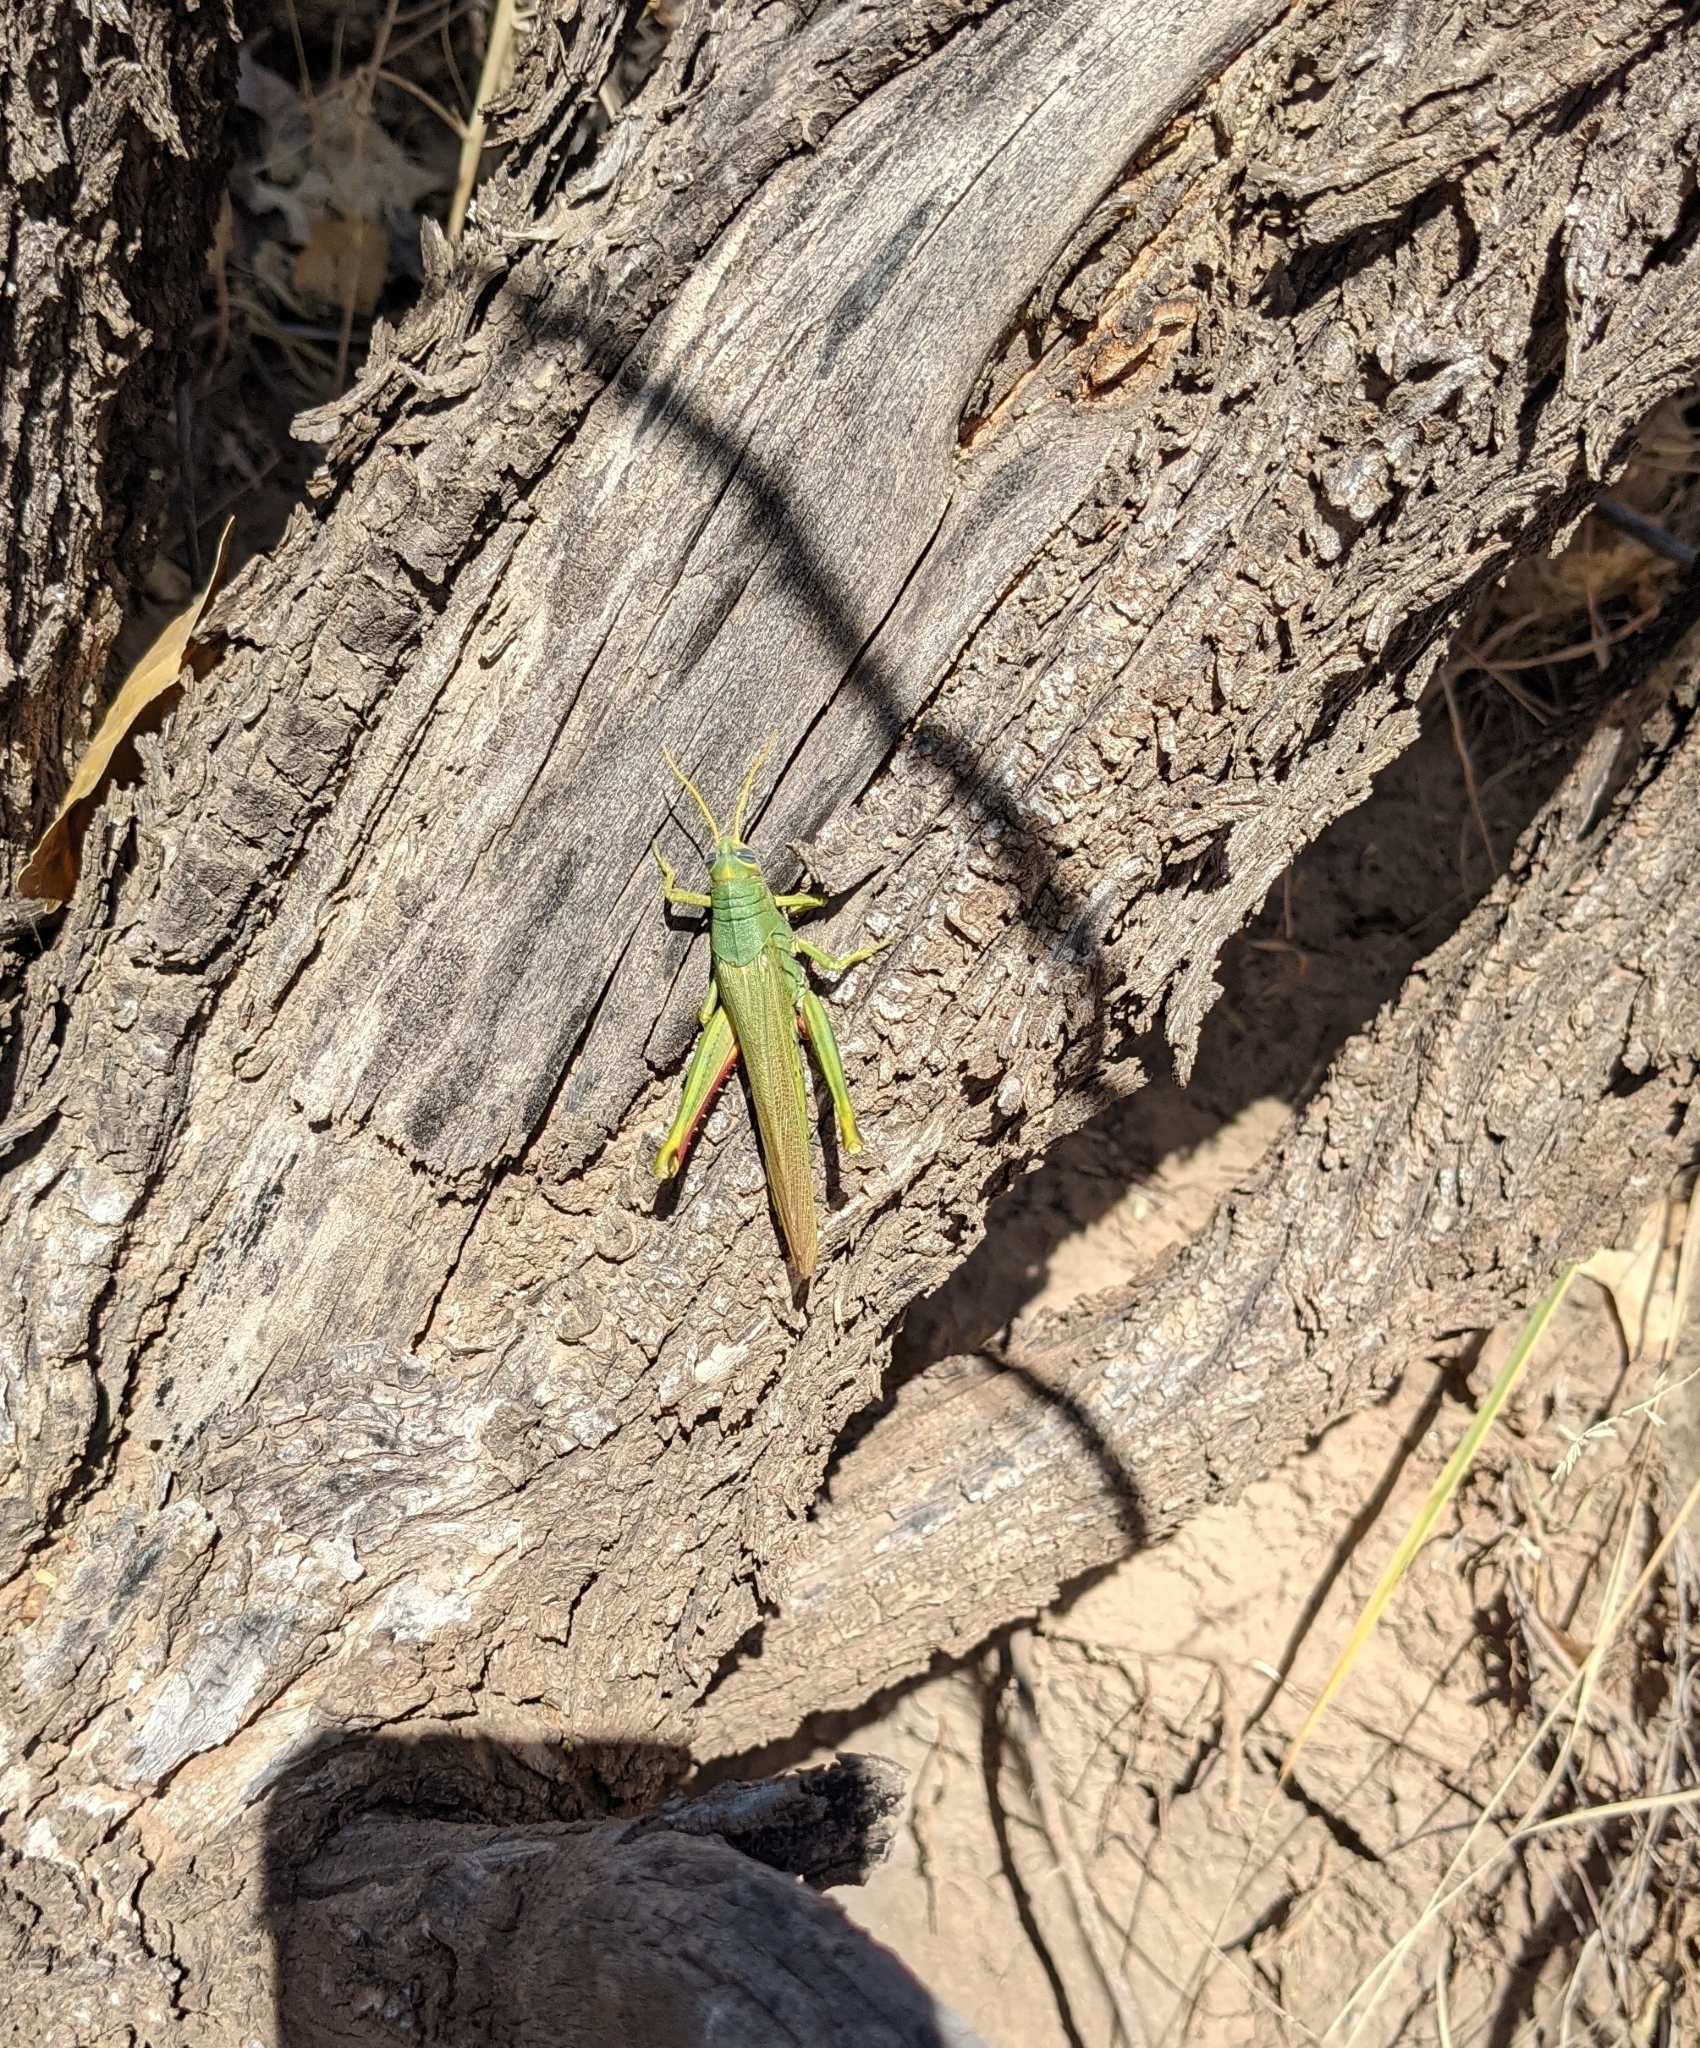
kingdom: Animalia
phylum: Arthropoda
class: Insecta
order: Orthoptera
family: Acrididae
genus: Schistocerca
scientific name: Schistocerca shoshone
